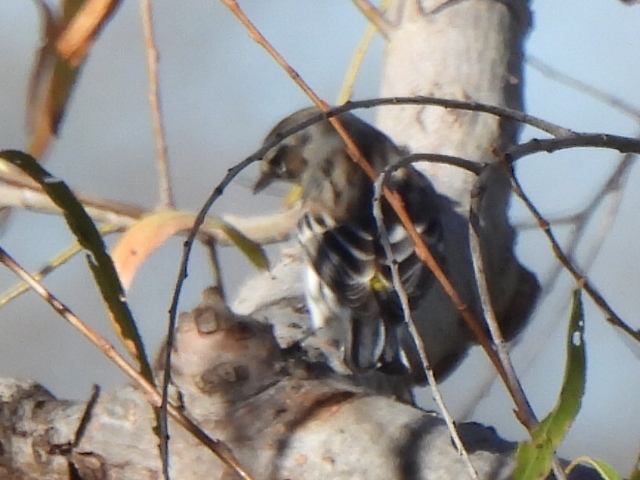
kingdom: Animalia
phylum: Chordata
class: Aves
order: Passeriformes
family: Parulidae
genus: Setophaga
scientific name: Setophaga coronata
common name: Myrtle warbler
